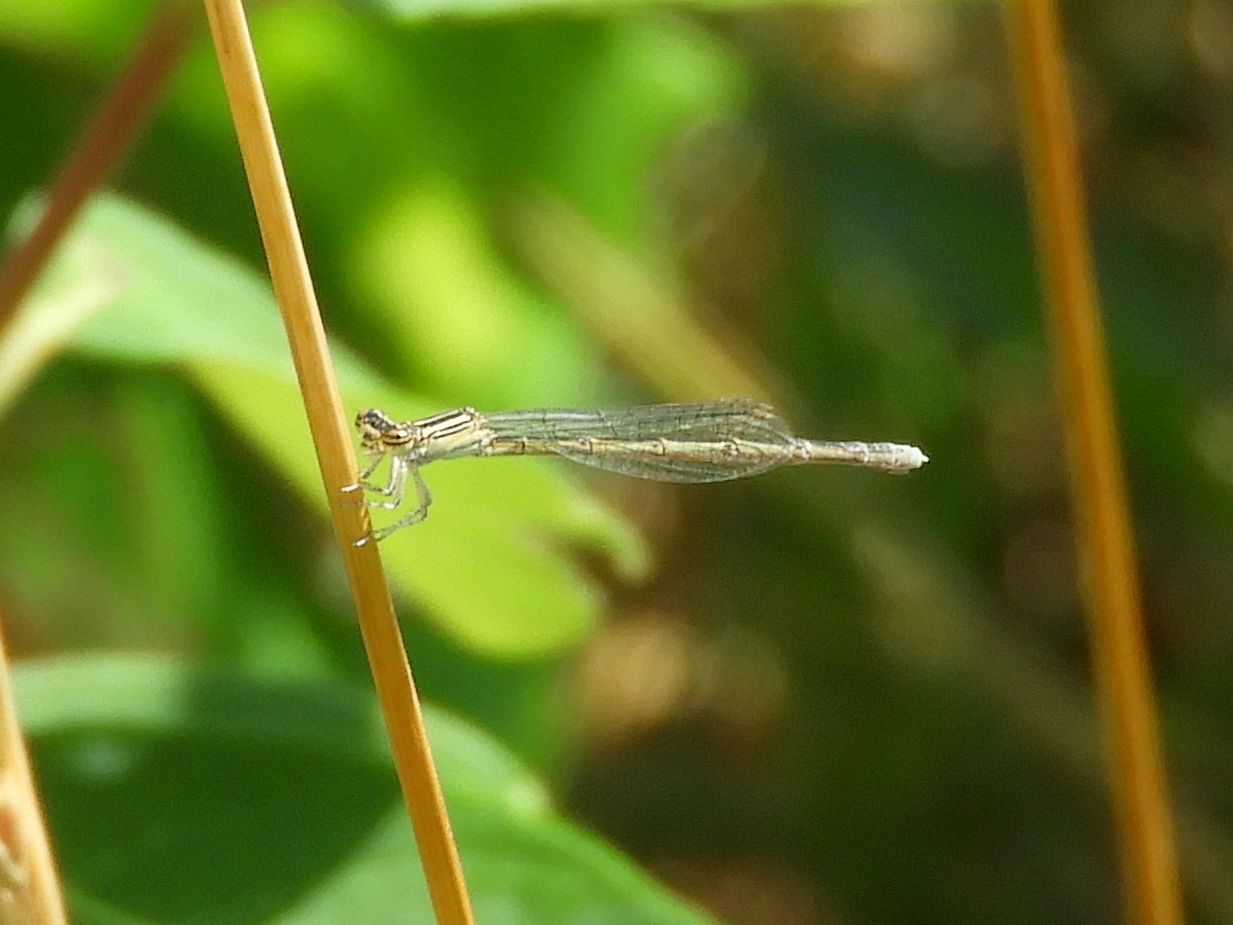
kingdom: Animalia
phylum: Arthropoda
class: Insecta
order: Odonata
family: Coenagrionidae
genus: Enallagma
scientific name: Enallagma basidens
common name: Double-striped bluet
